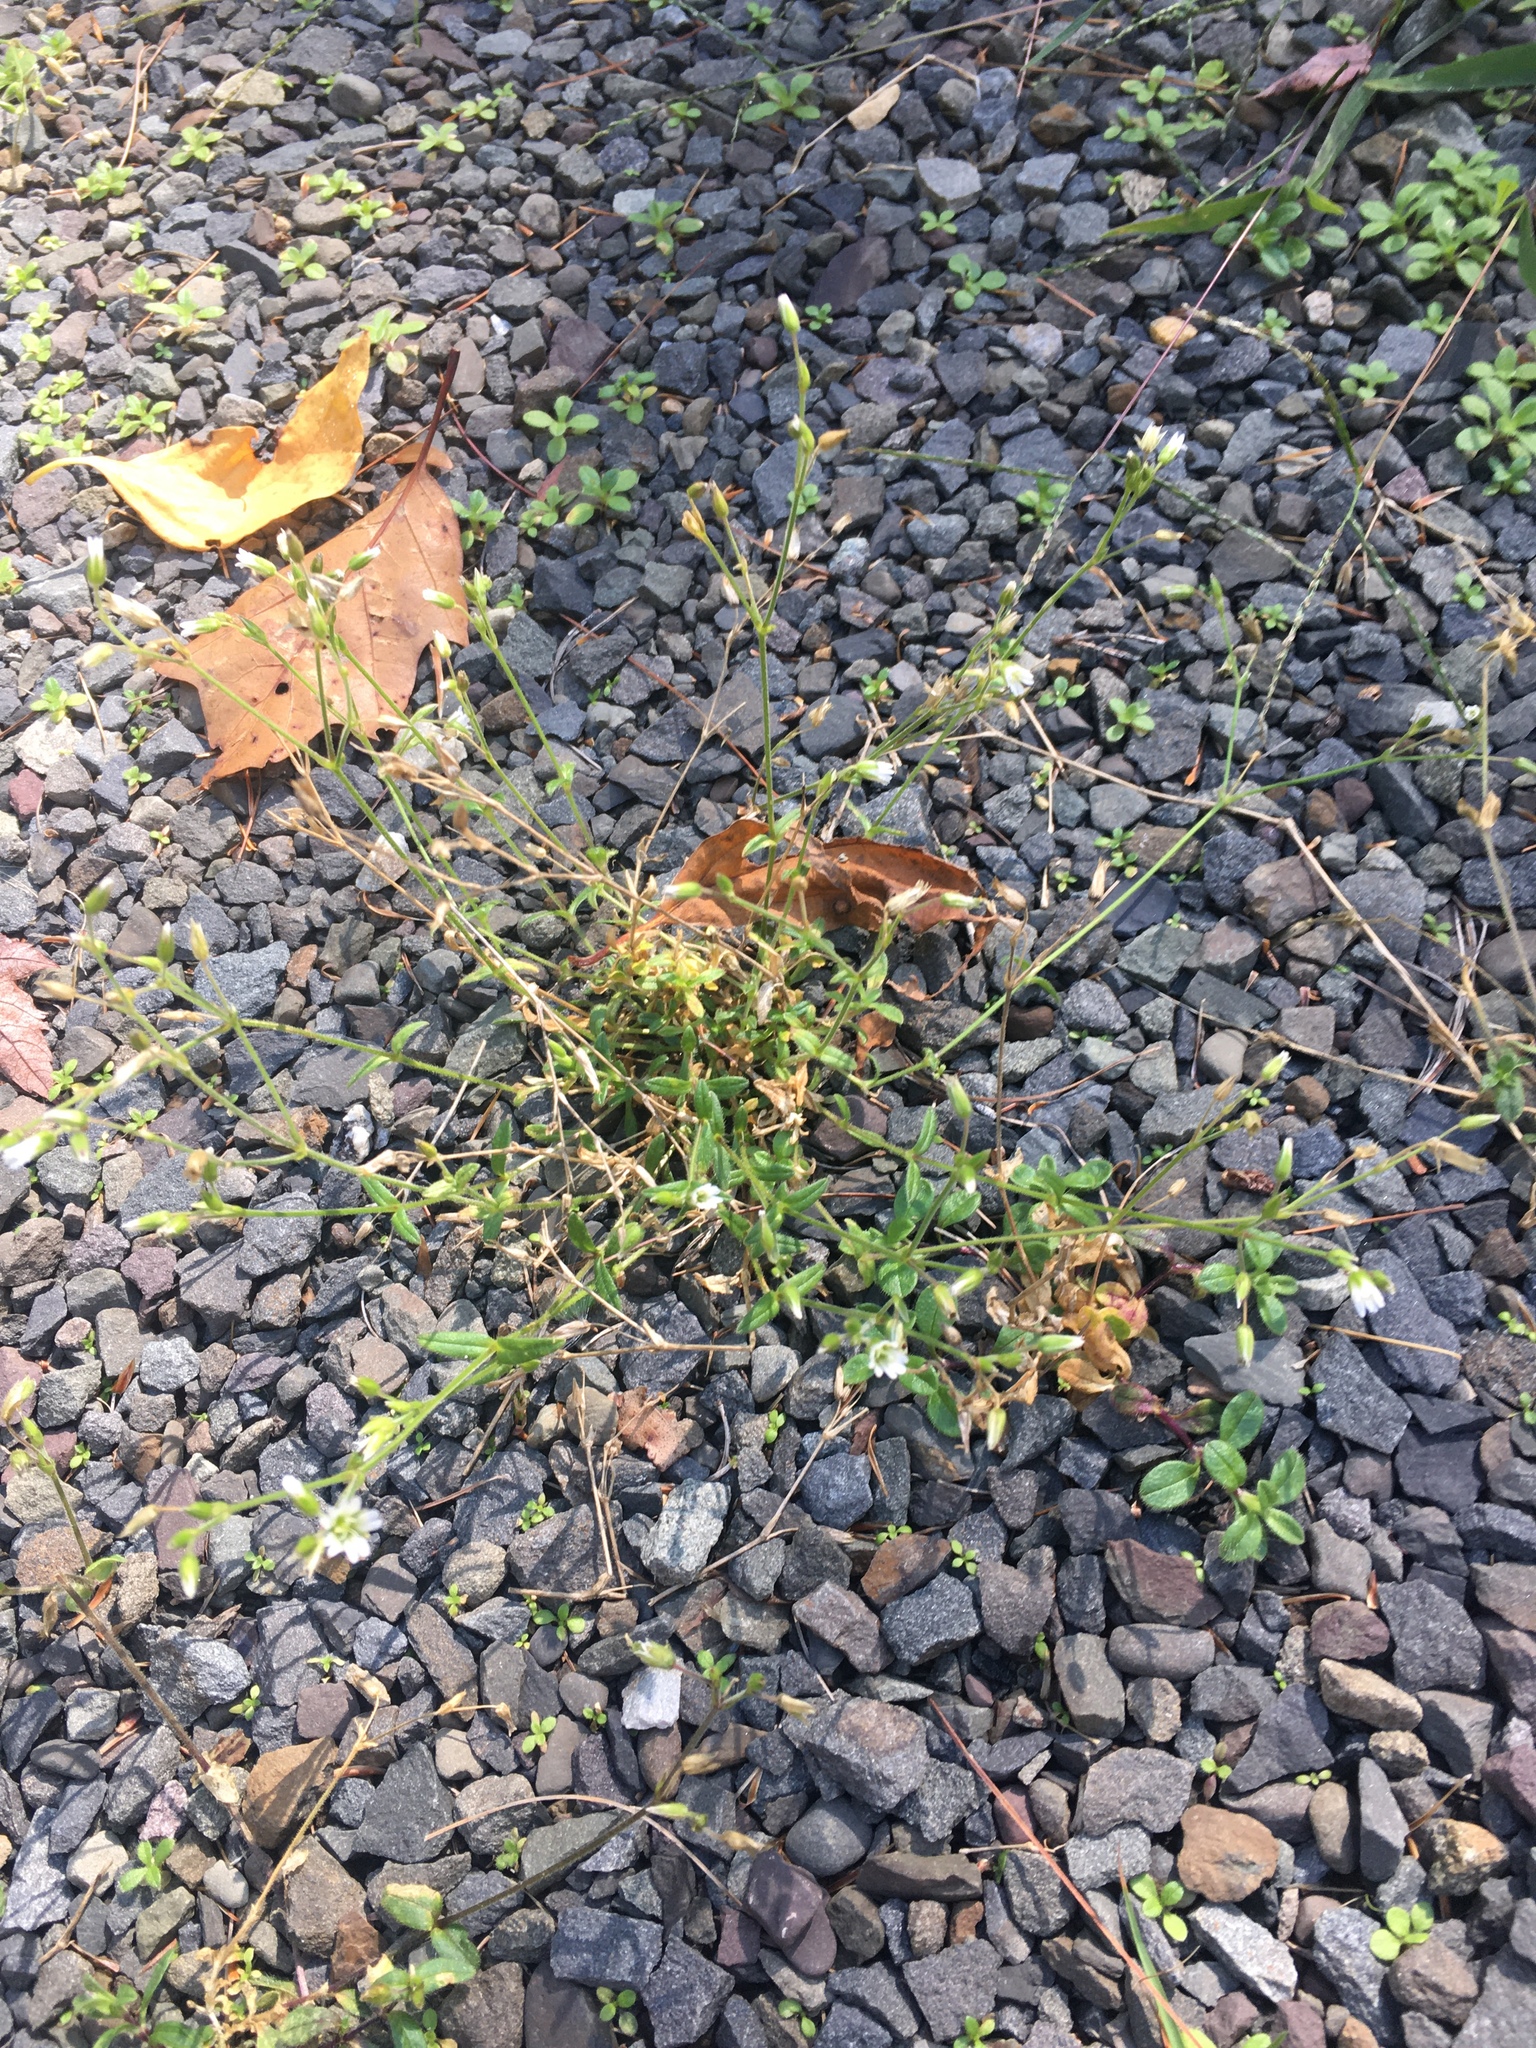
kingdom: Plantae
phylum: Tracheophyta
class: Magnoliopsida
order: Caryophyllales
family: Caryophyllaceae
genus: Cerastium
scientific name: Cerastium fontanum
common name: Common mouse-ear
